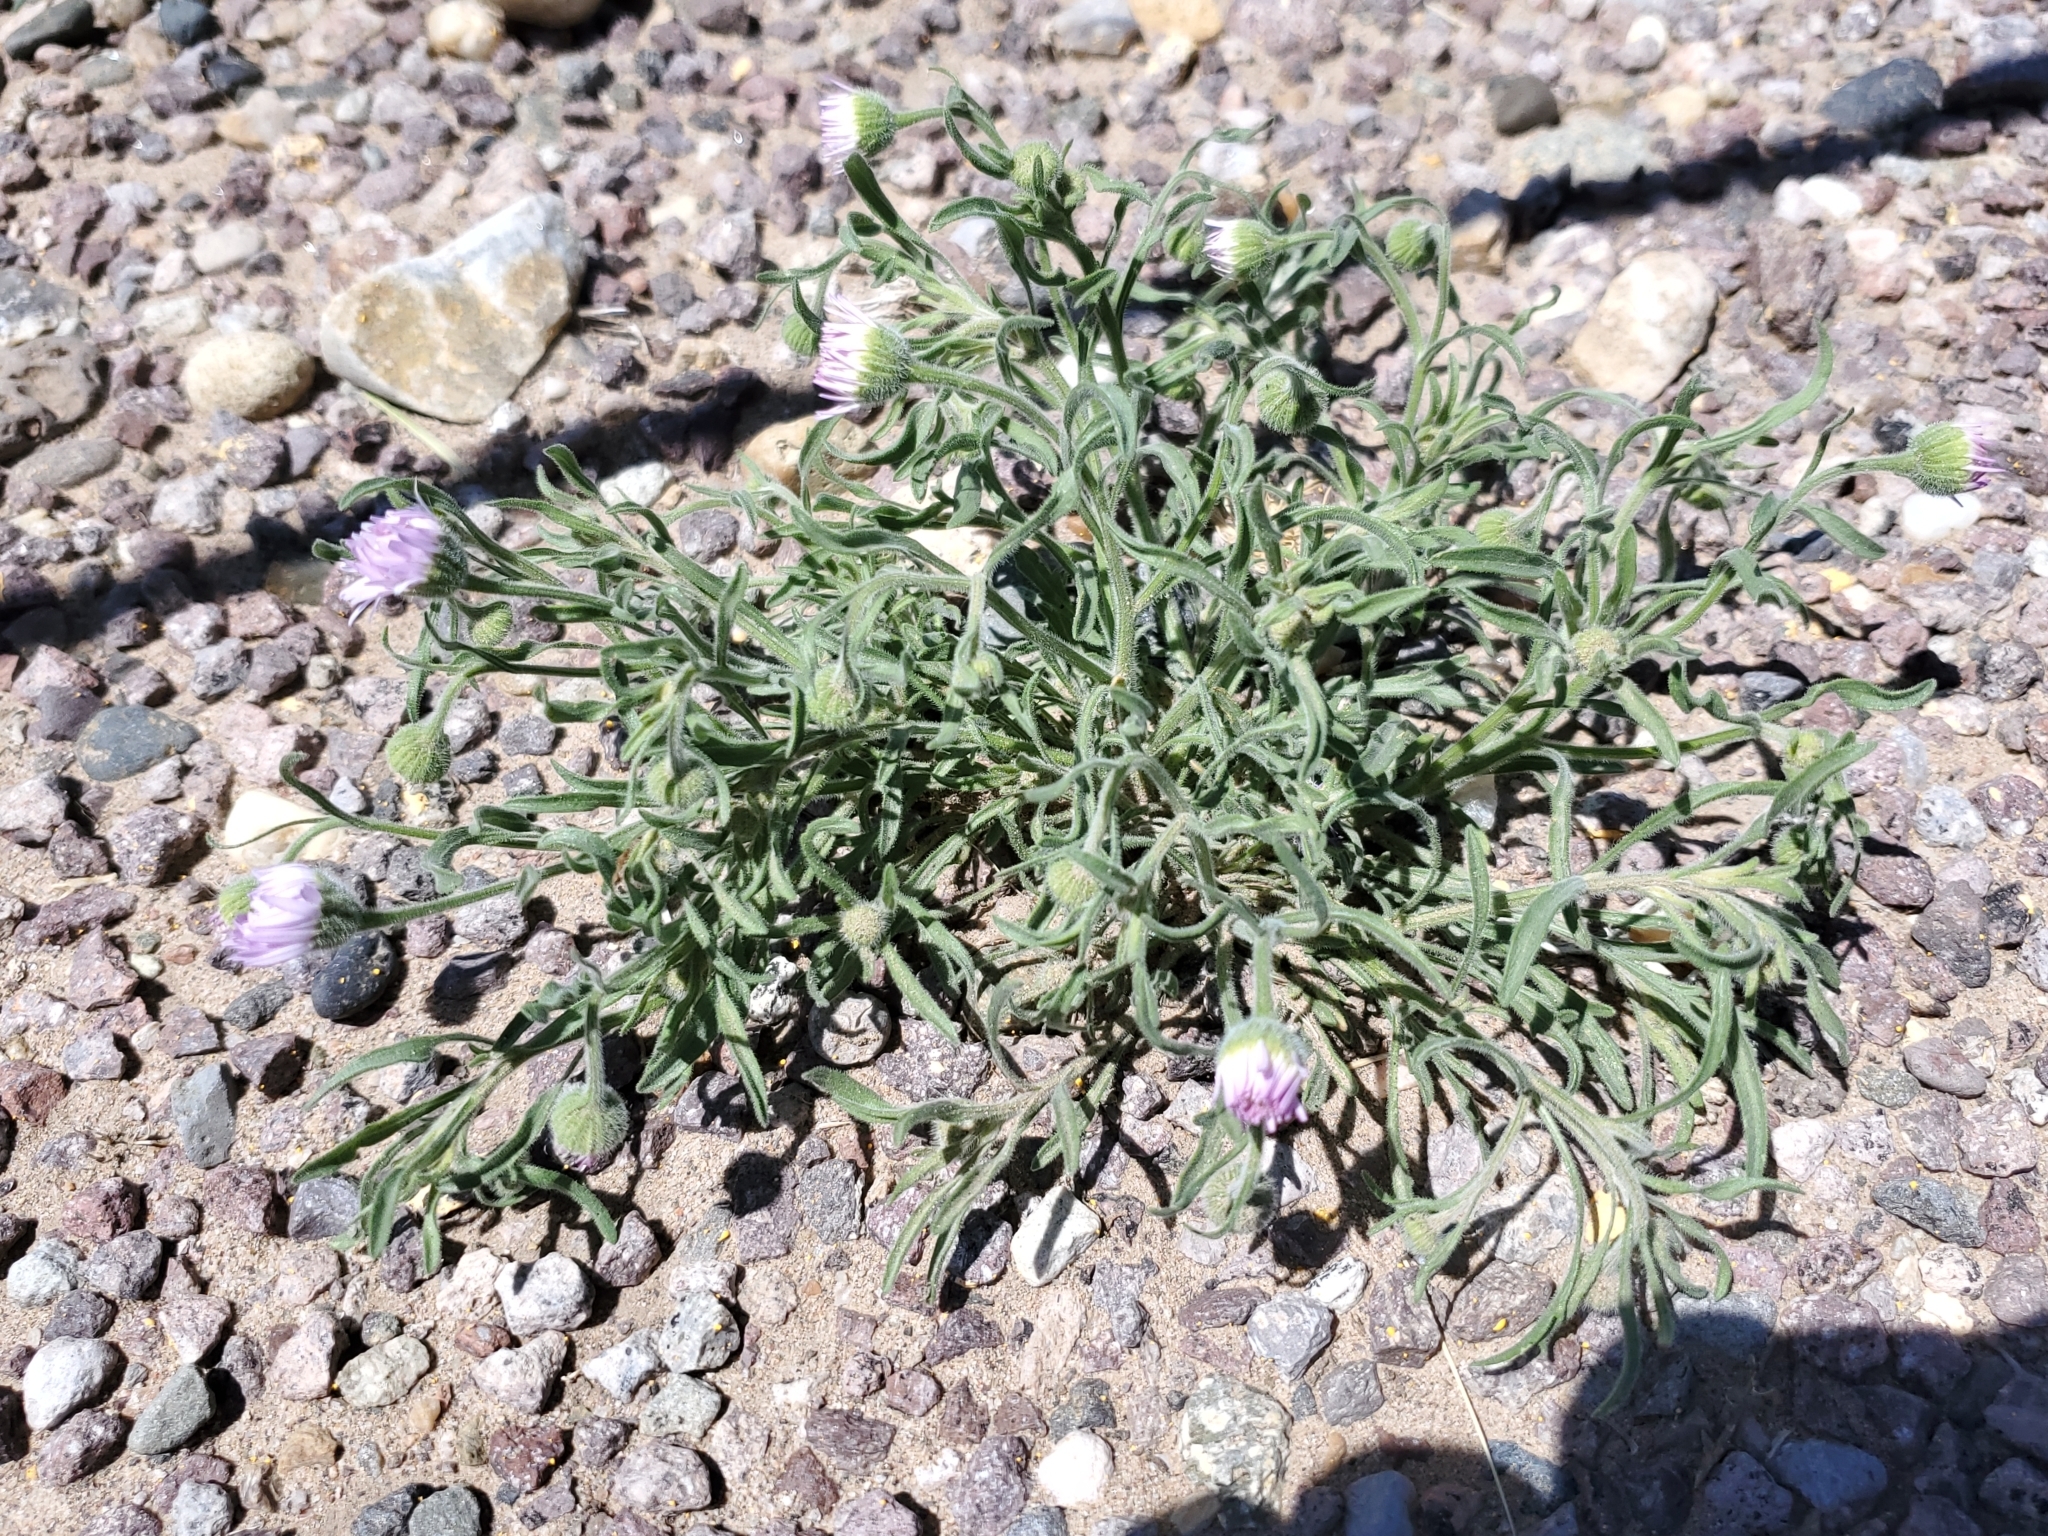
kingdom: Plantae
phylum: Tracheophyta
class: Magnoliopsida
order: Asterales
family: Asteraceae
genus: Erigeron
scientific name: Erigeron bellidiastrum
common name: Sand fleabane
